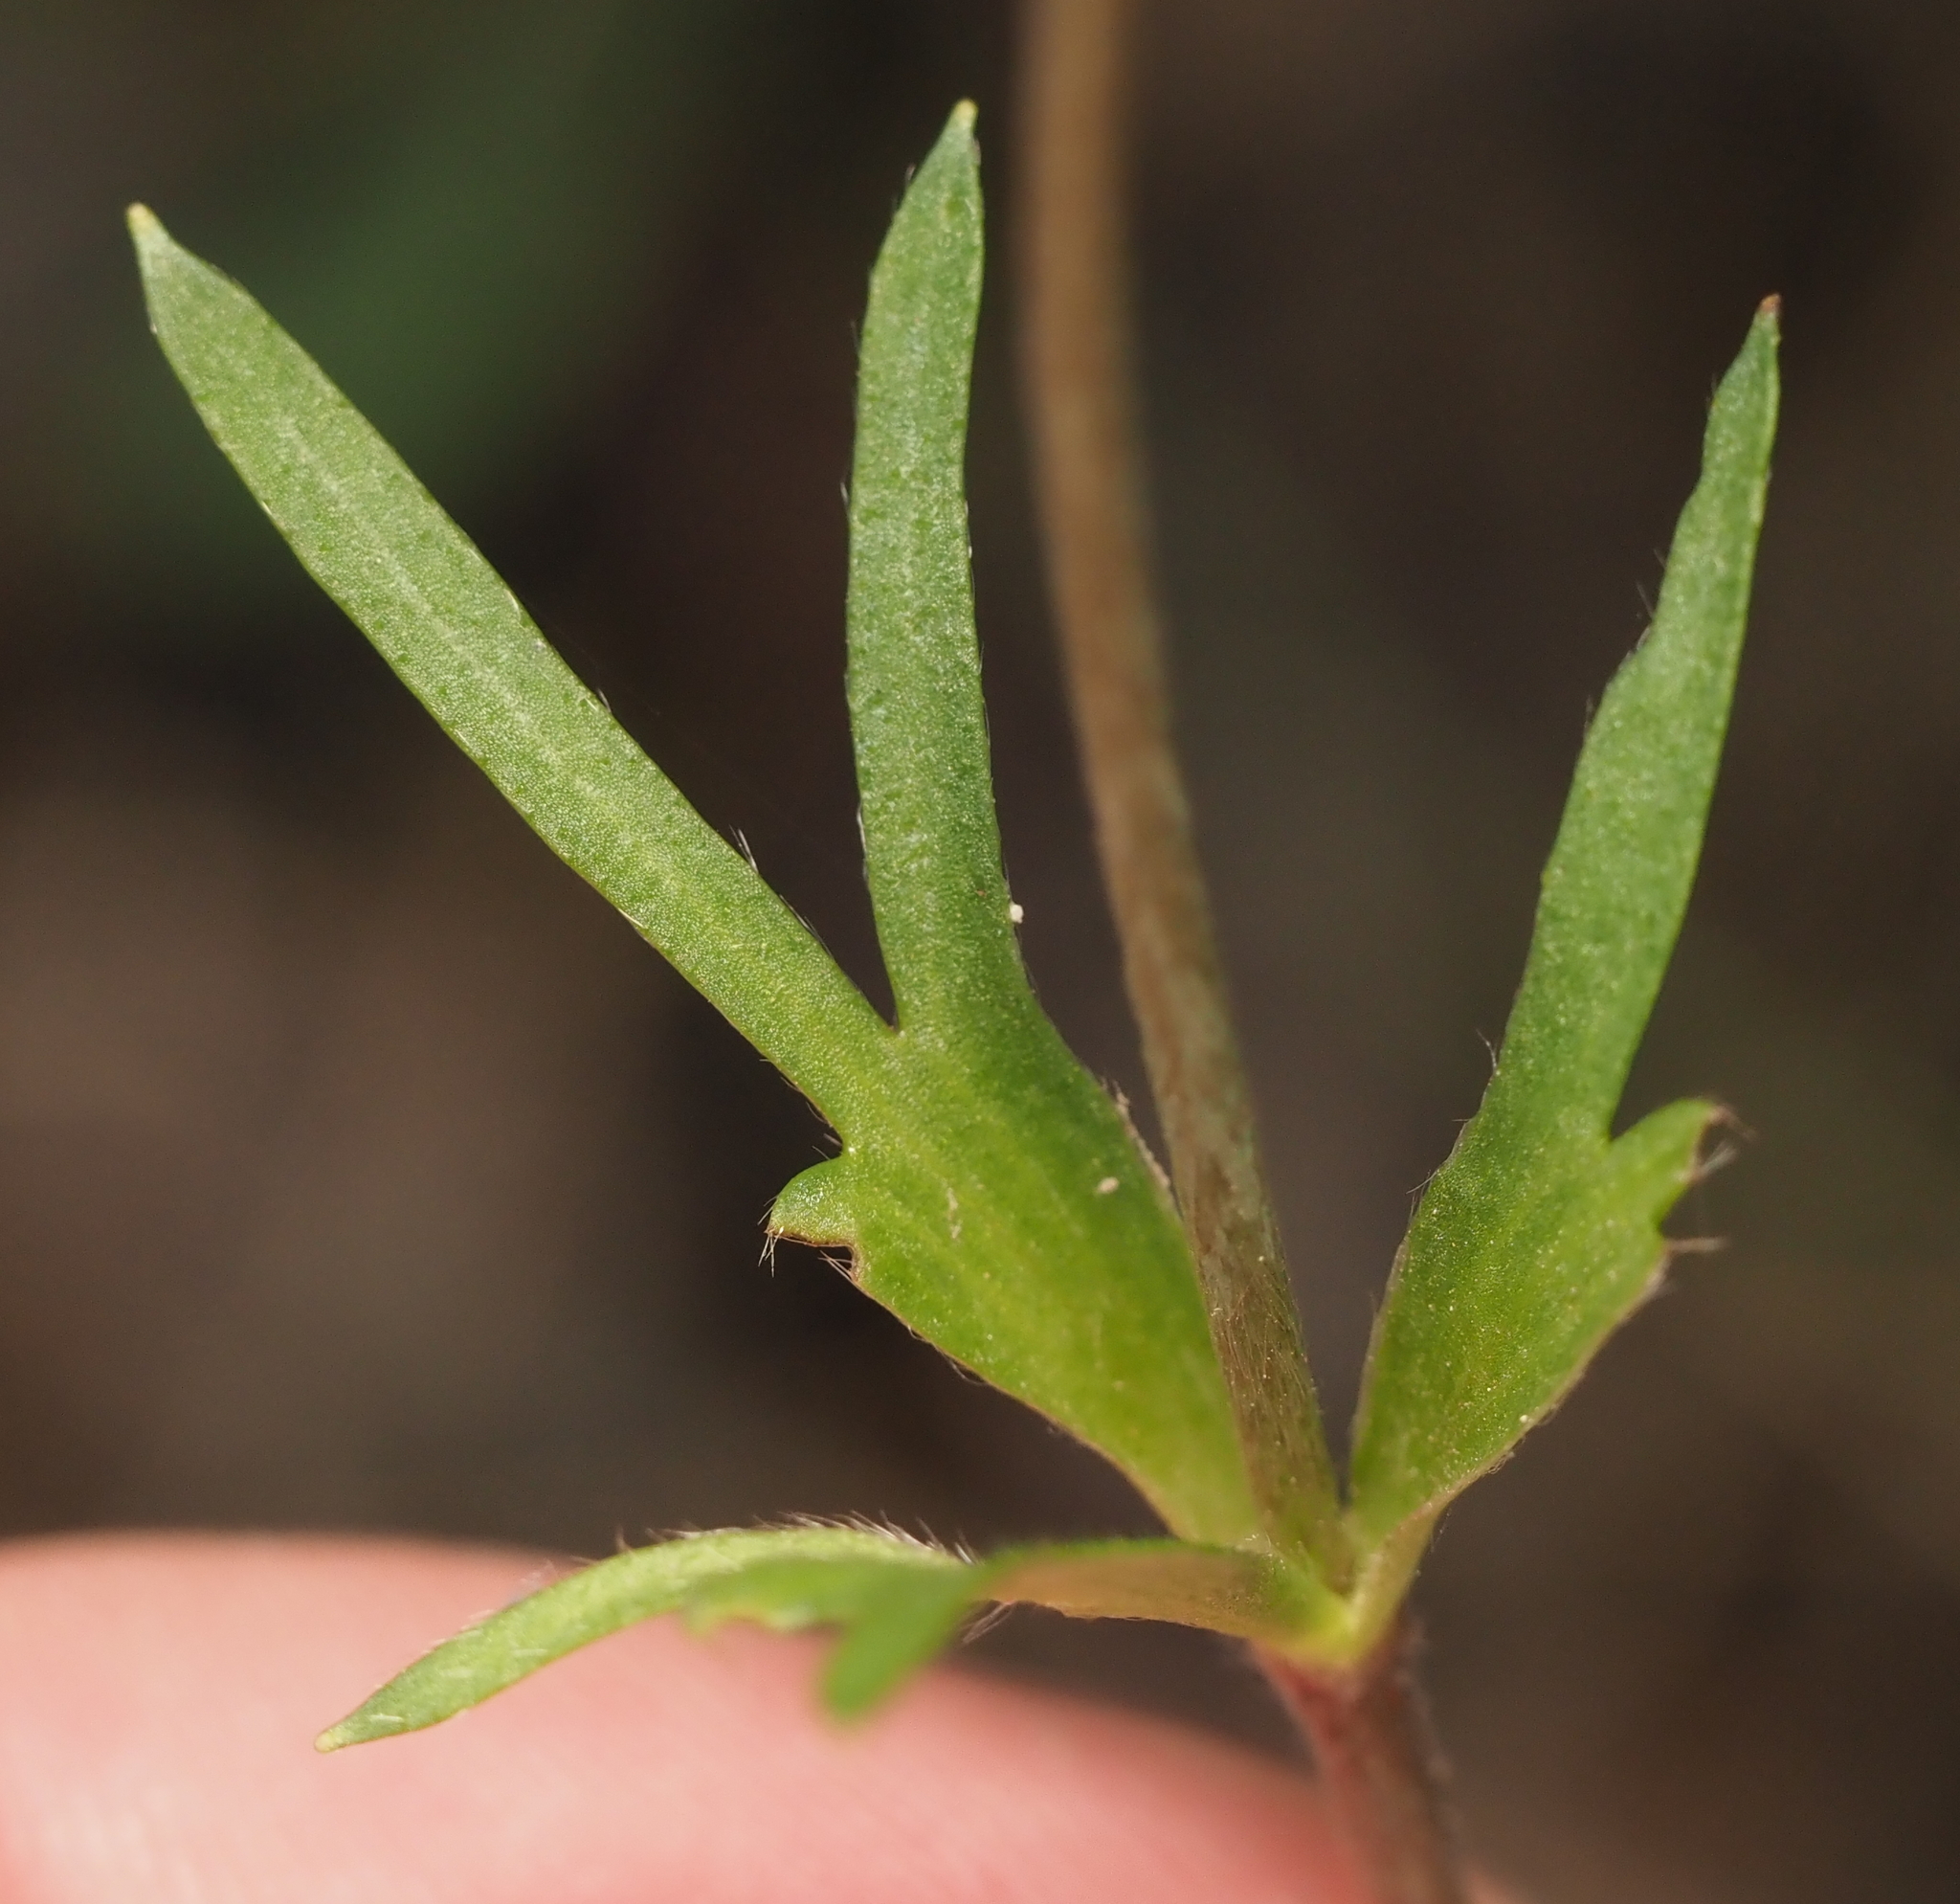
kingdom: Plantae
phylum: Tracheophyta
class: Magnoliopsida
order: Ranunculales
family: Ranunculaceae
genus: Anemone
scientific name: Anemone berlandieri
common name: Ten-petal anemone
